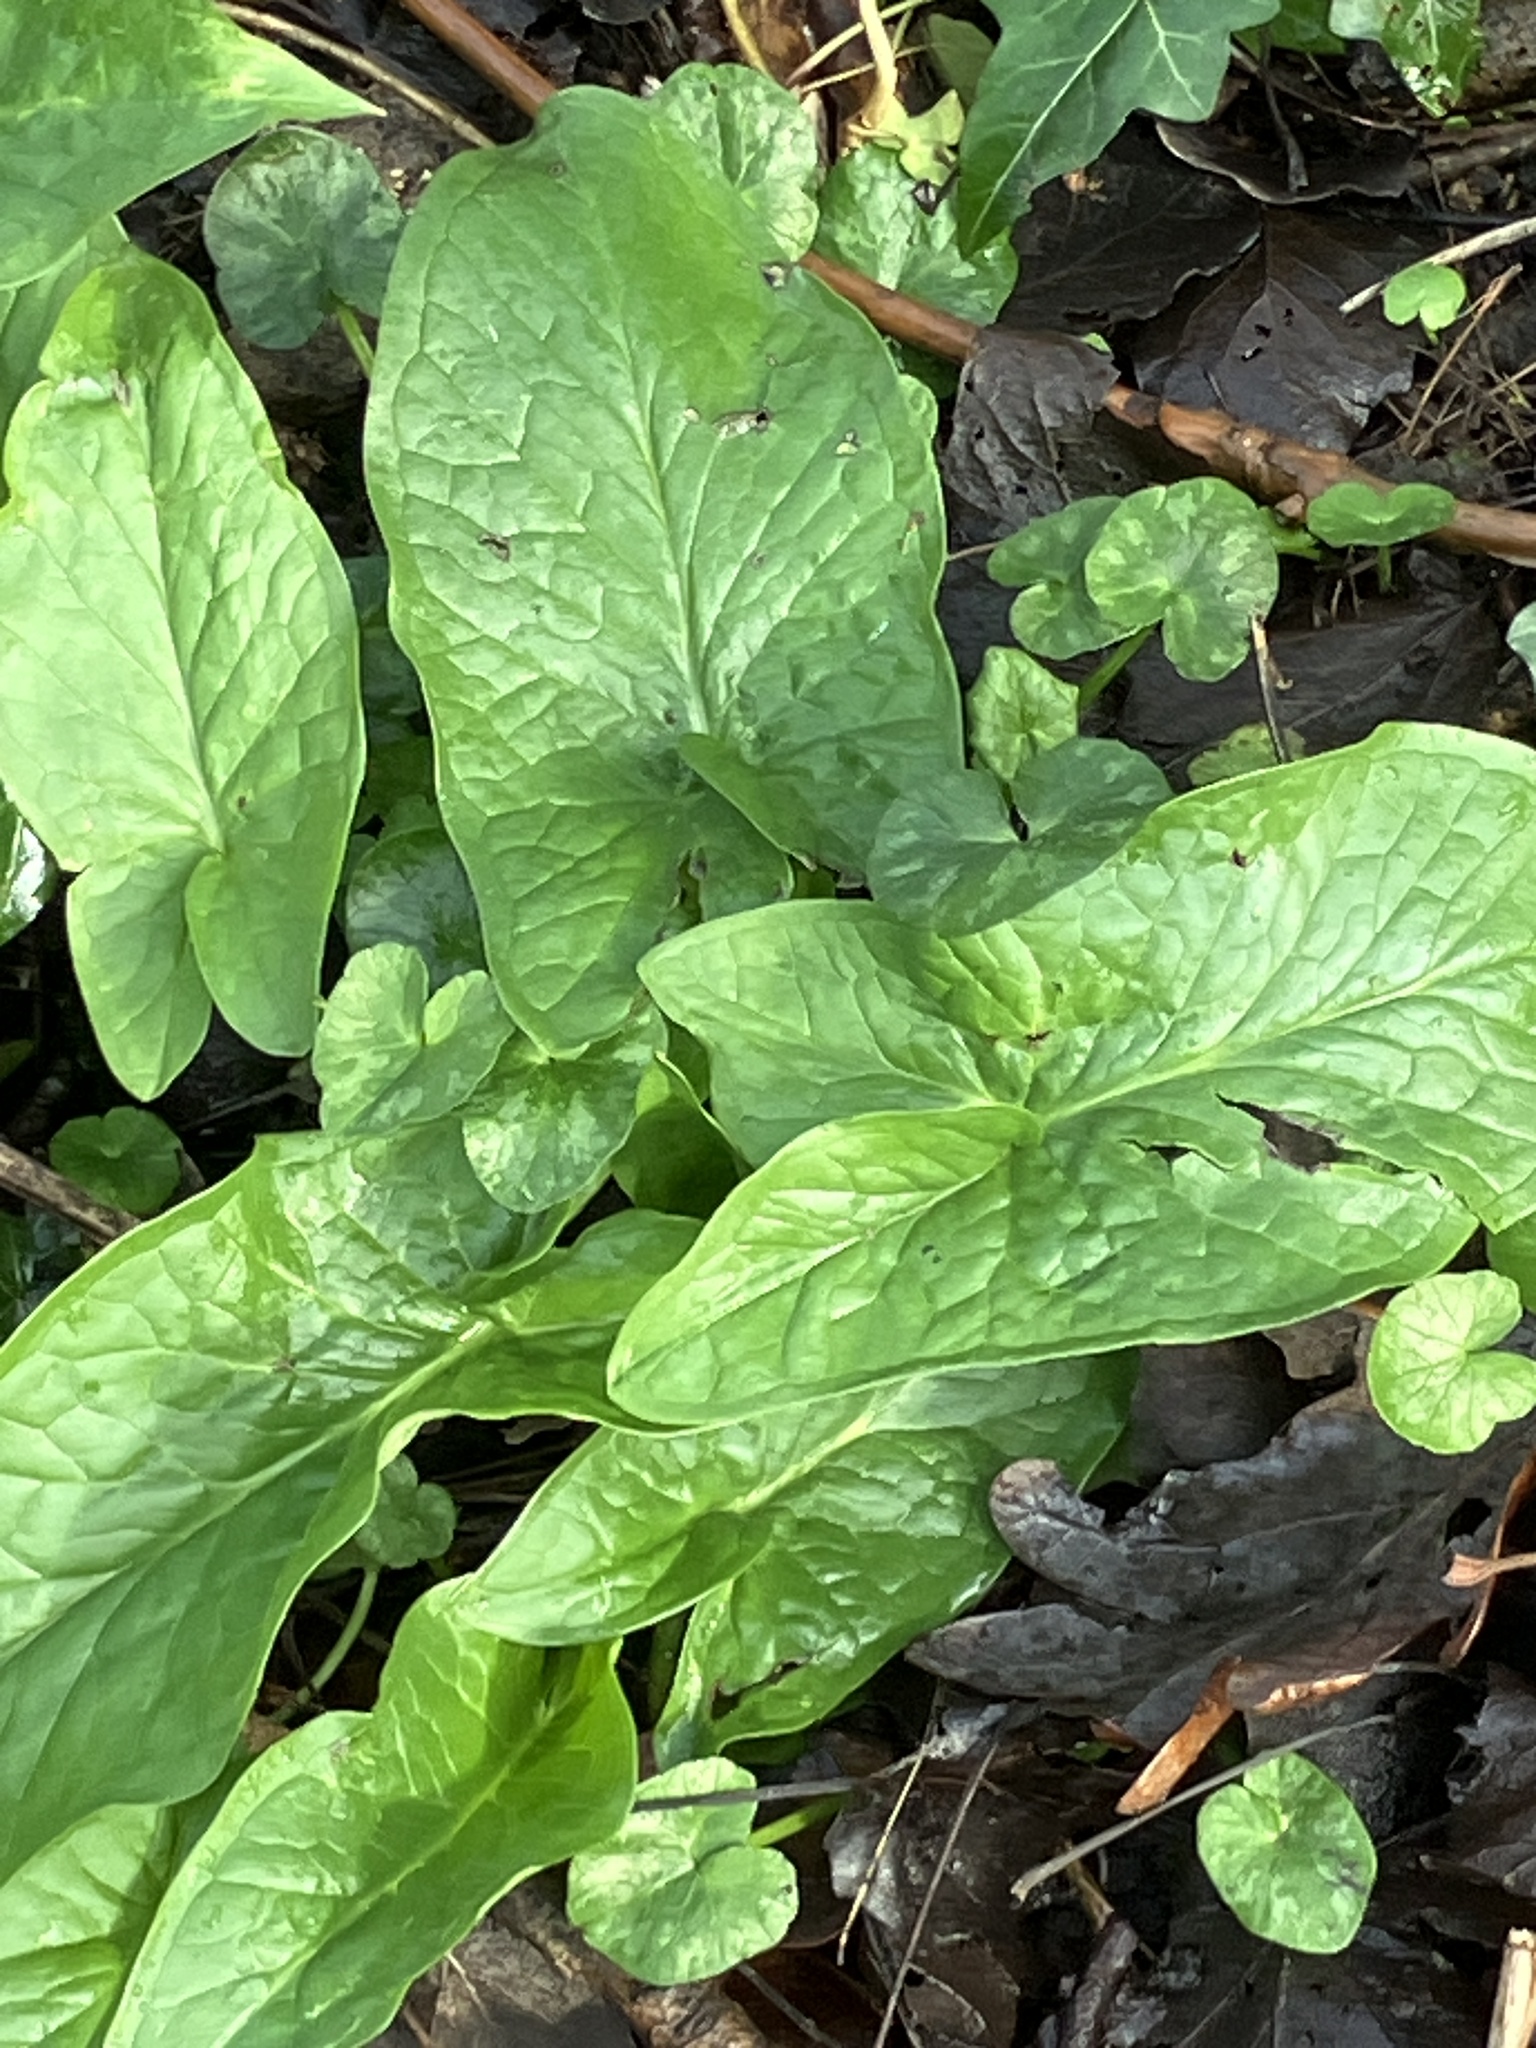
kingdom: Plantae
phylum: Tracheophyta
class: Liliopsida
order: Alismatales
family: Araceae
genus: Arum
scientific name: Arum maculatum
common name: Lords-and-ladies
